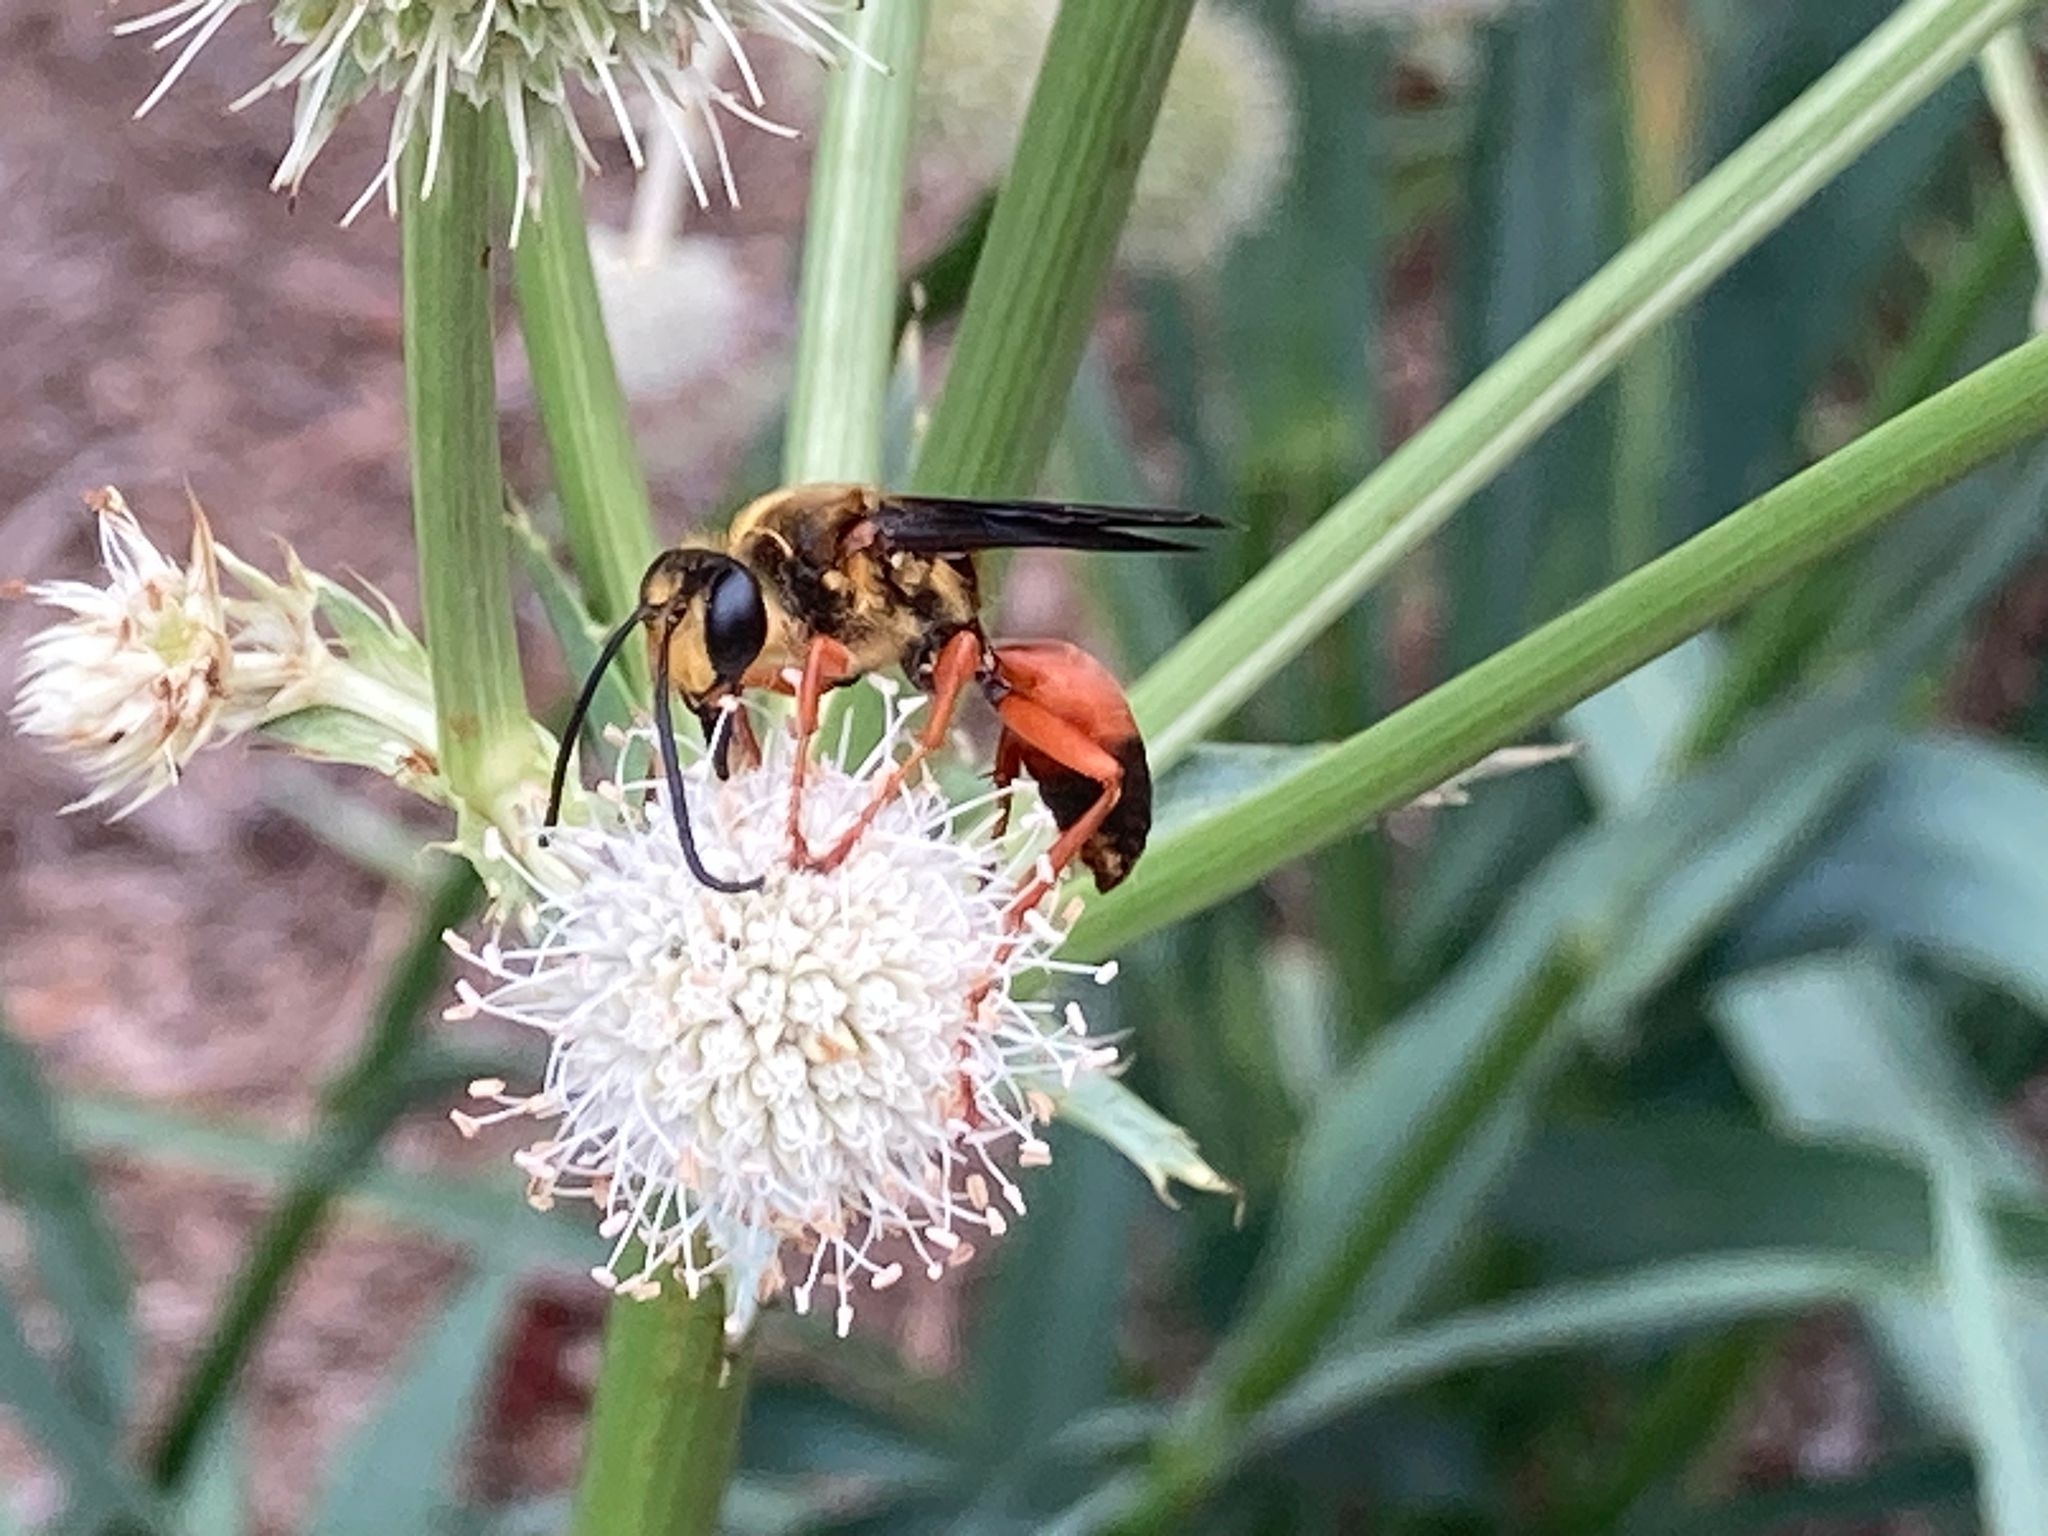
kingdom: Animalia
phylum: Arthropoda
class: Insecta
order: Hymenoptera
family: Sphecidae
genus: Sphex
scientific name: Sphex ichneumoneus
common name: Great golden digger wasp
